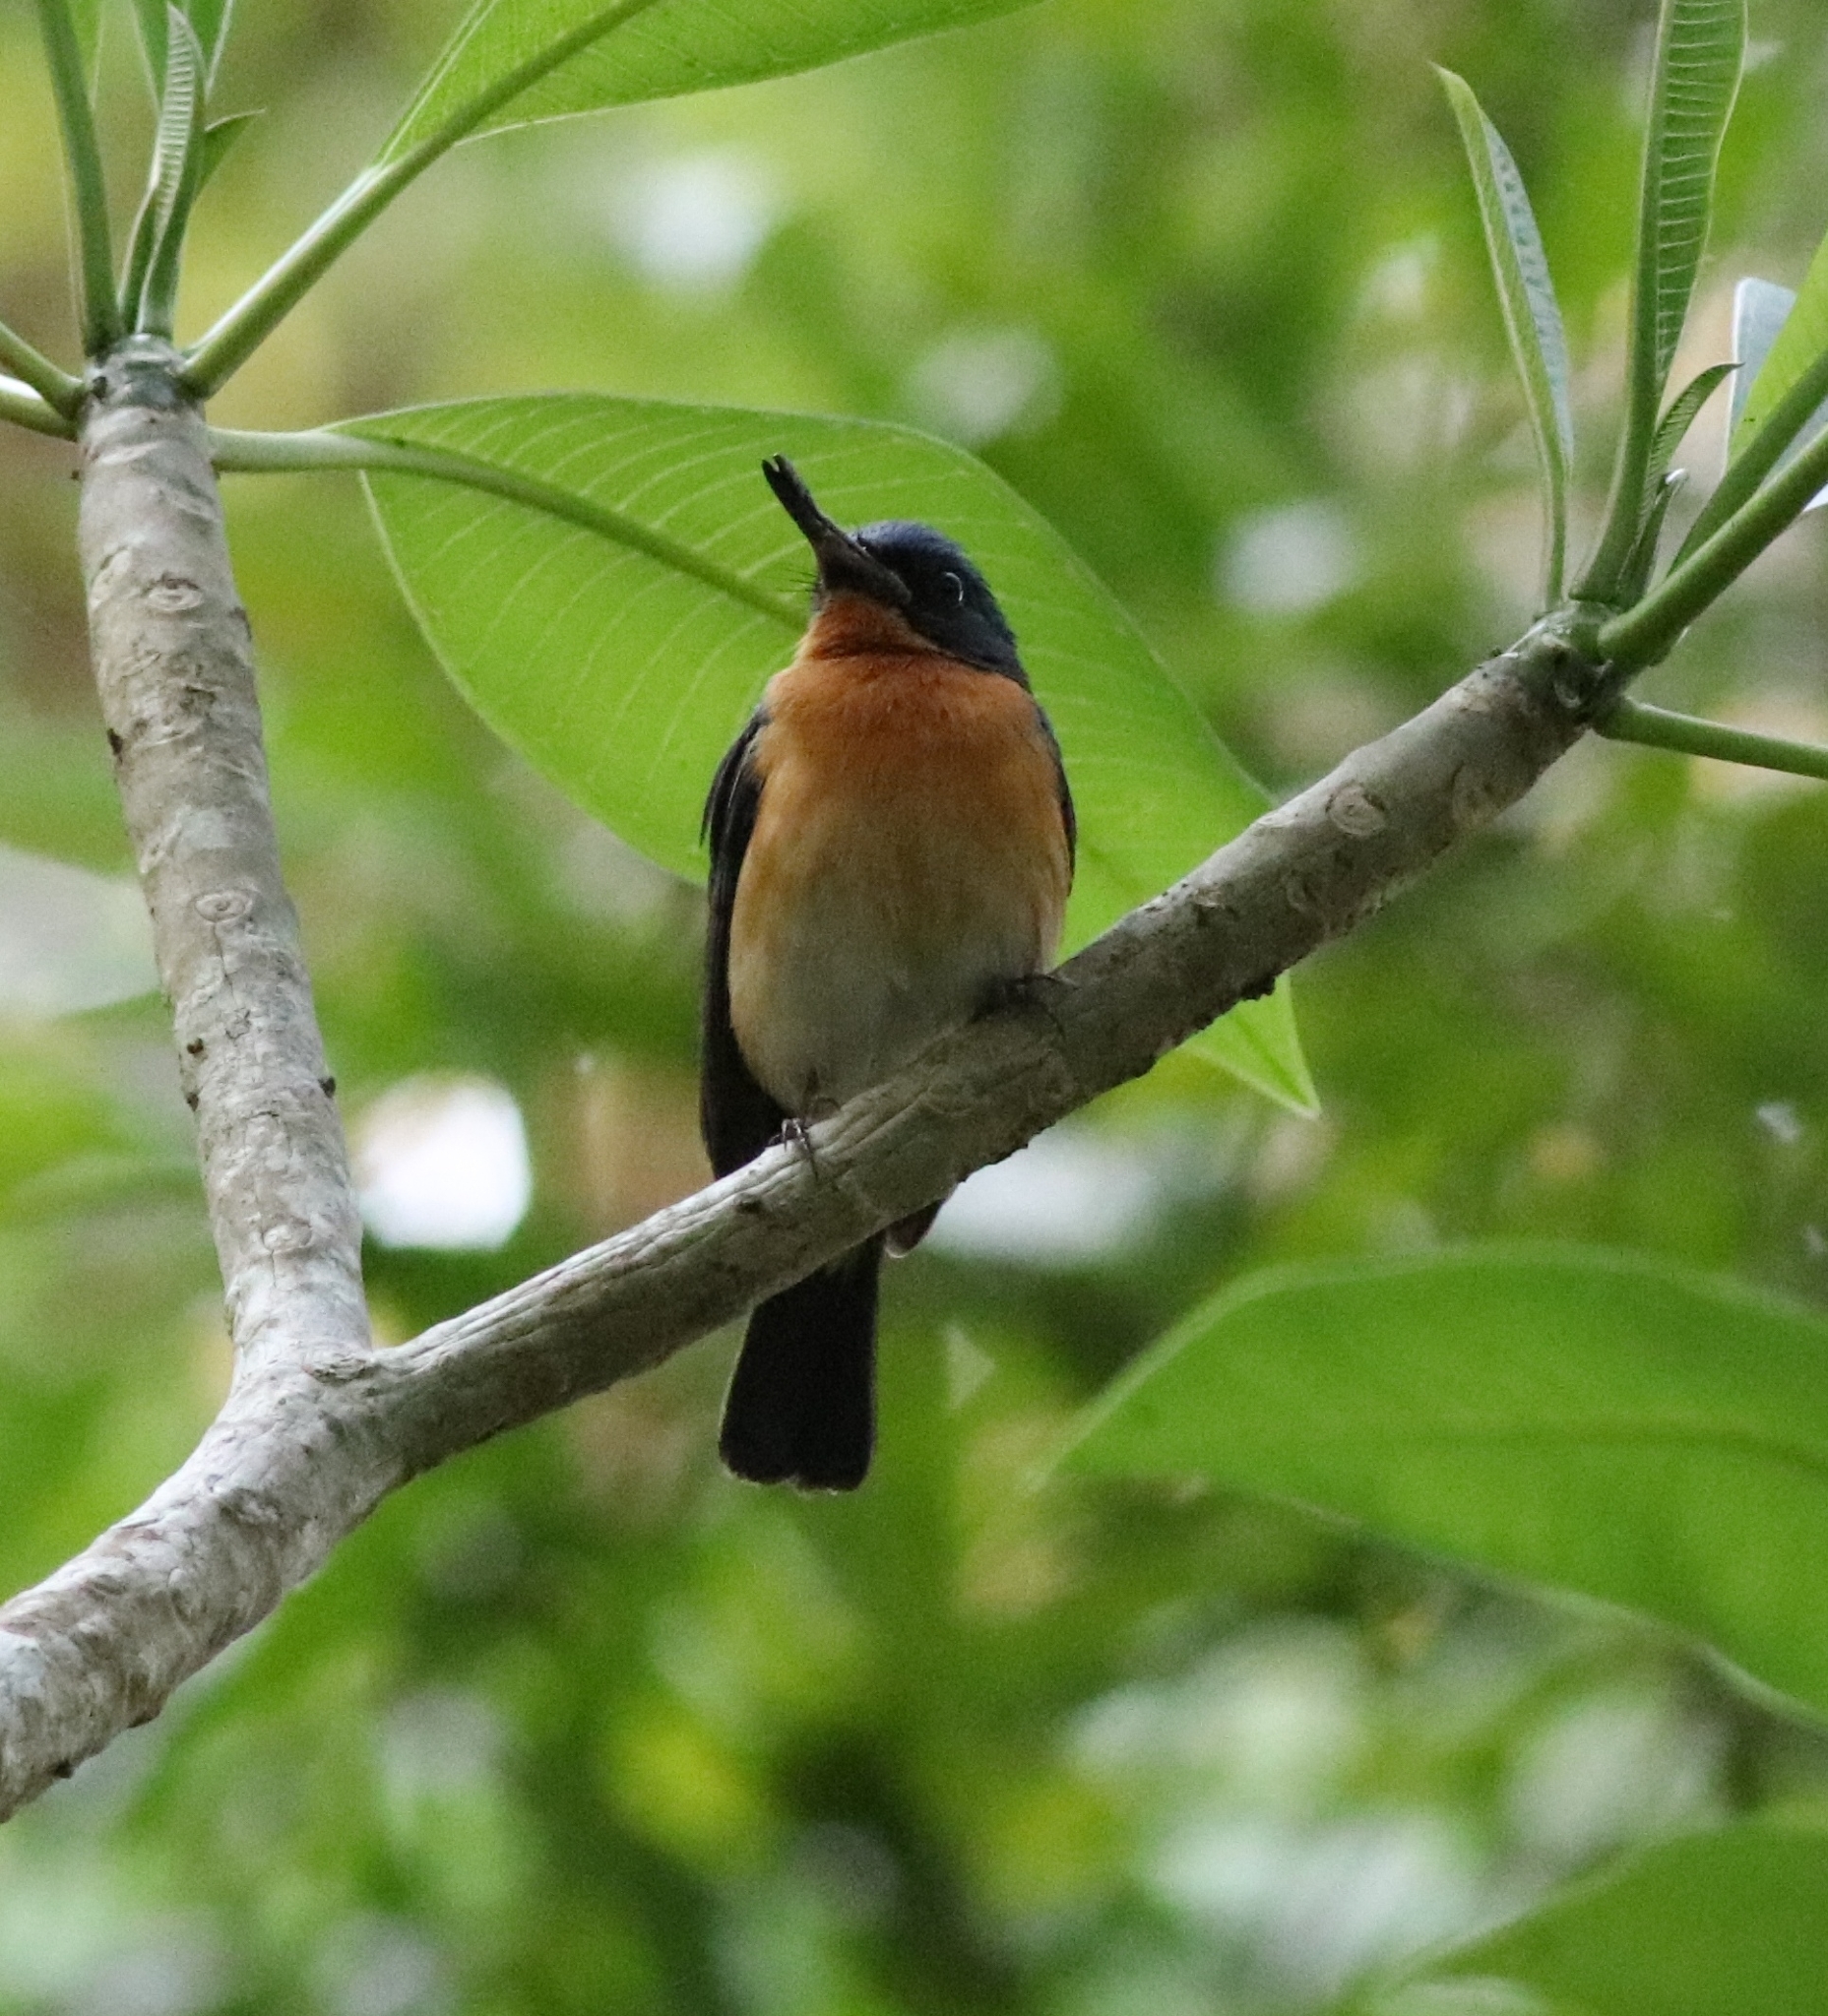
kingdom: Animalia
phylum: Chordata
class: Aves
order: Passeriformes
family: Muscicapidae
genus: Cyornis
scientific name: Cyornis tickelliae
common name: Tickell's blue flycatcher
